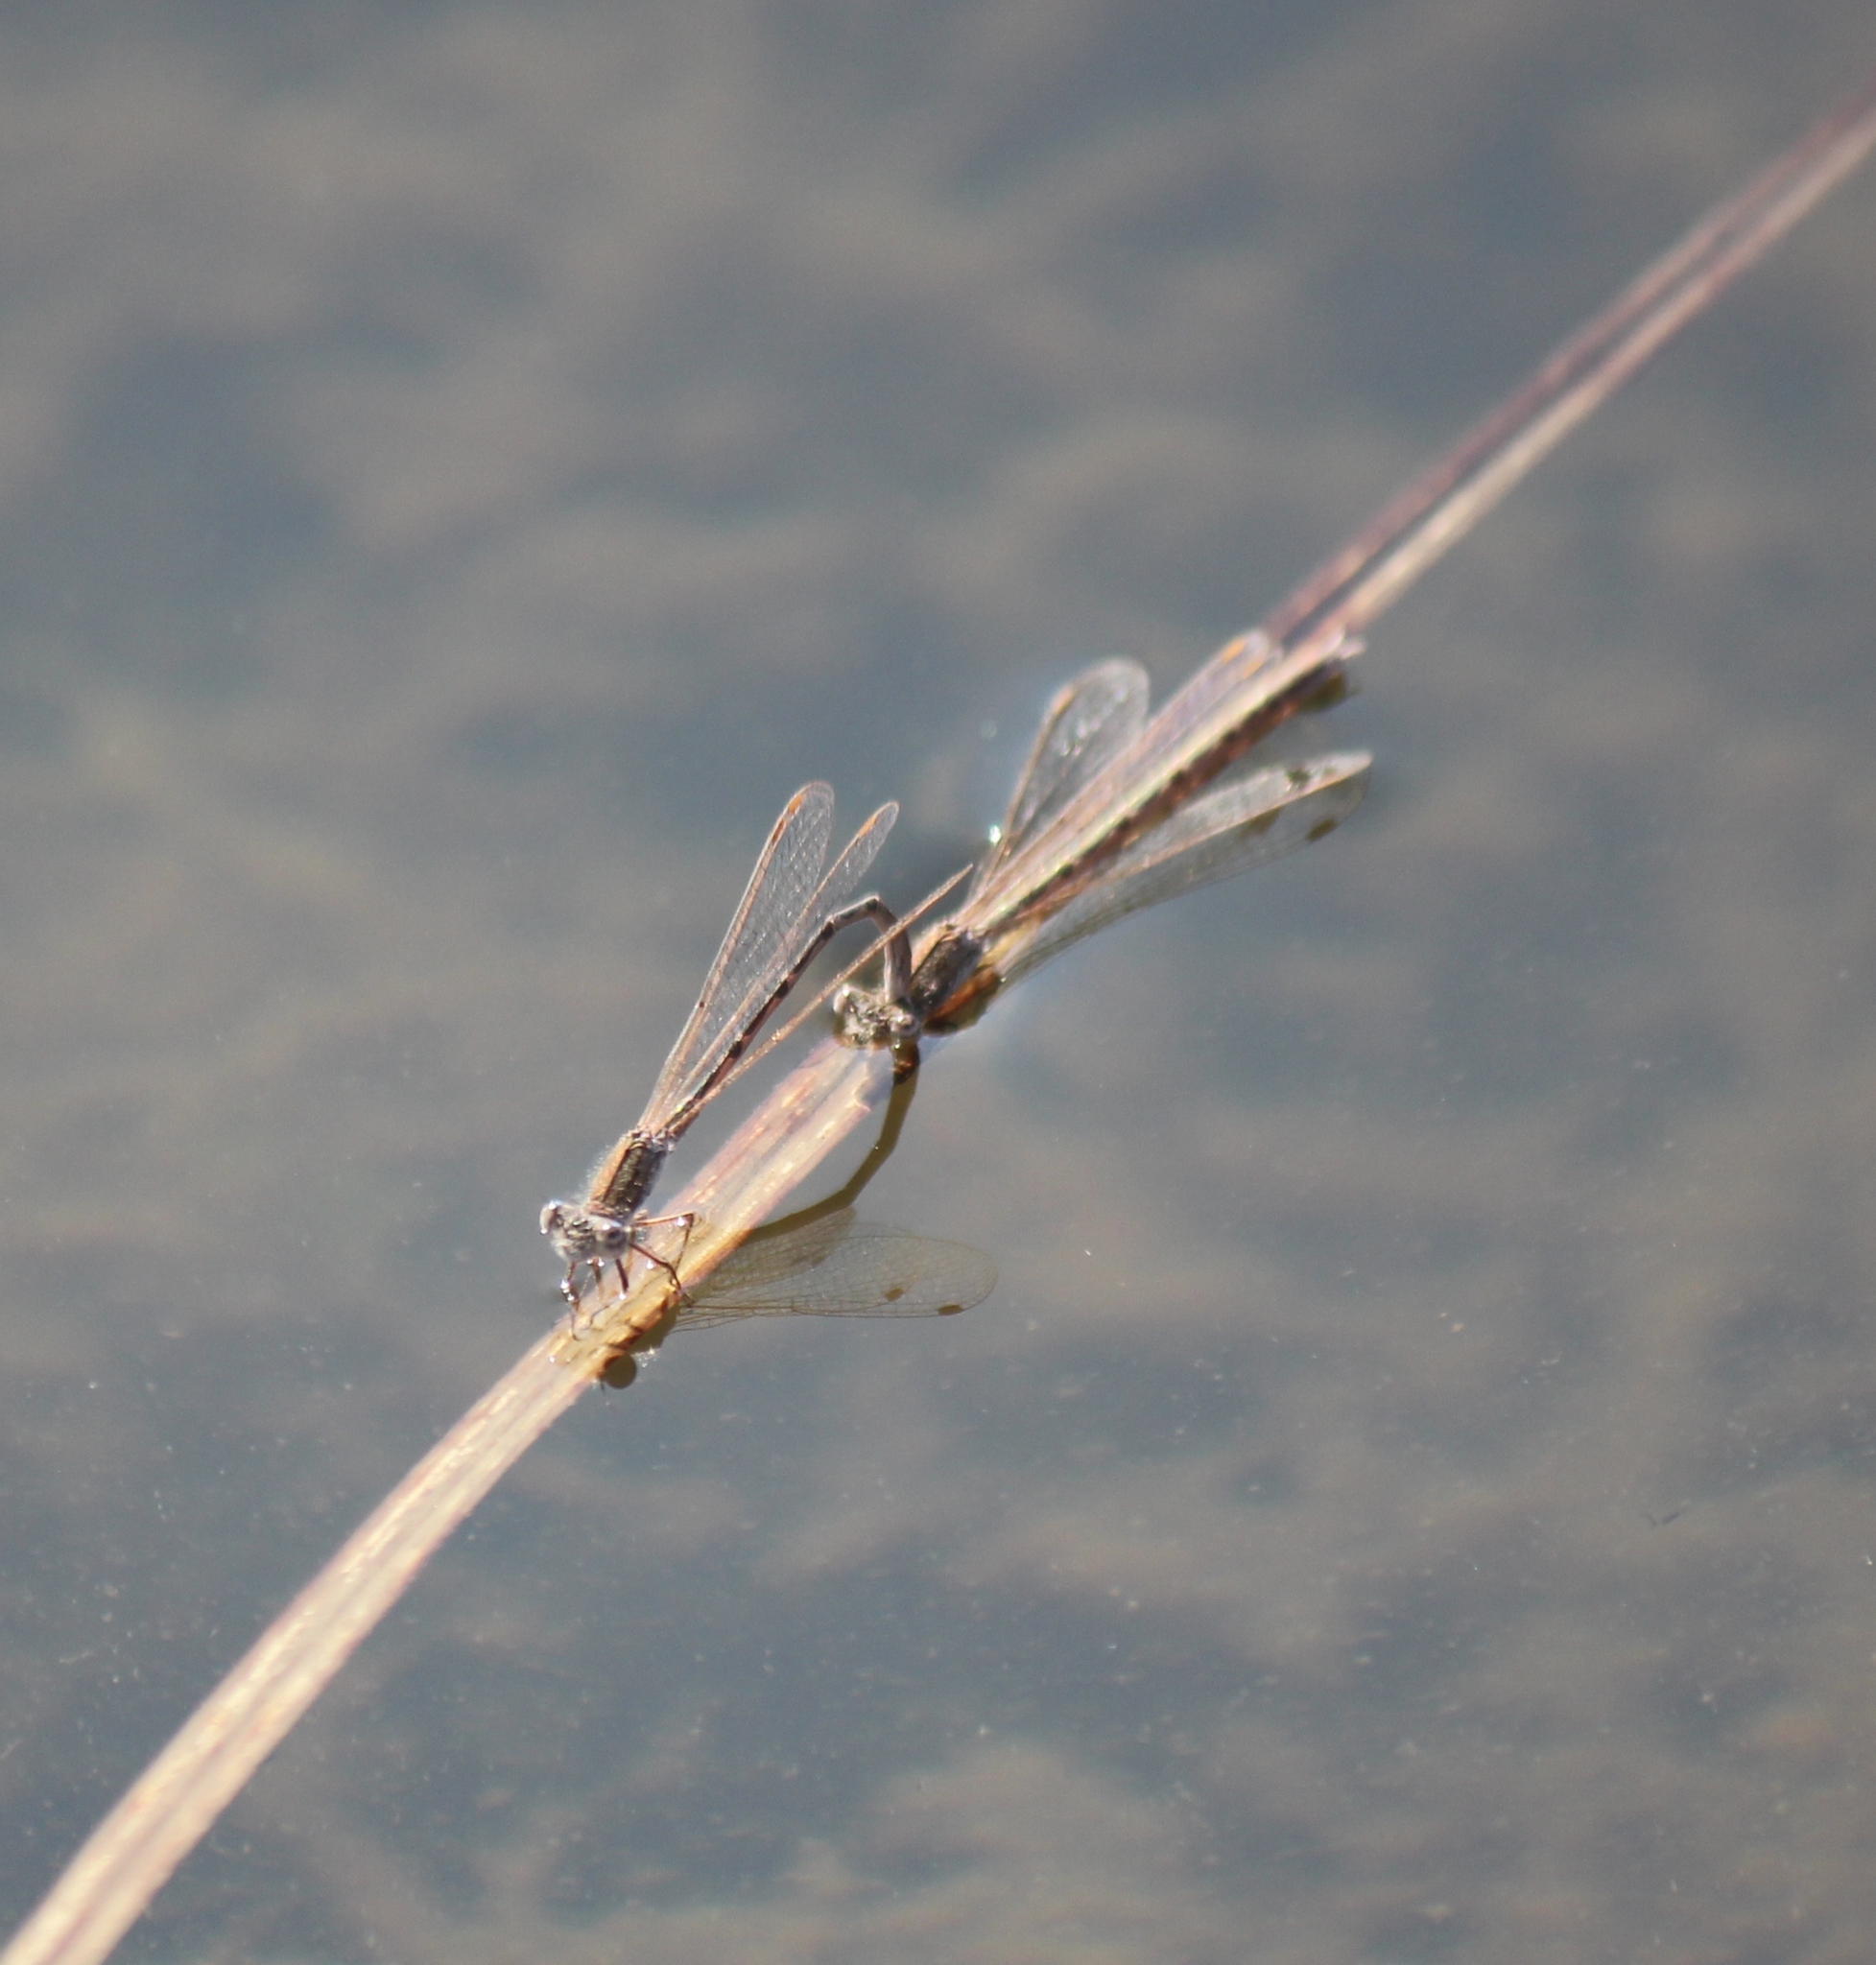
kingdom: Animalia
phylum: Arthropoda
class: Insecta
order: Odonata
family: Lestidae
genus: Sympecma
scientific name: Sympecma paedisca
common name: Siberian winter damsel
